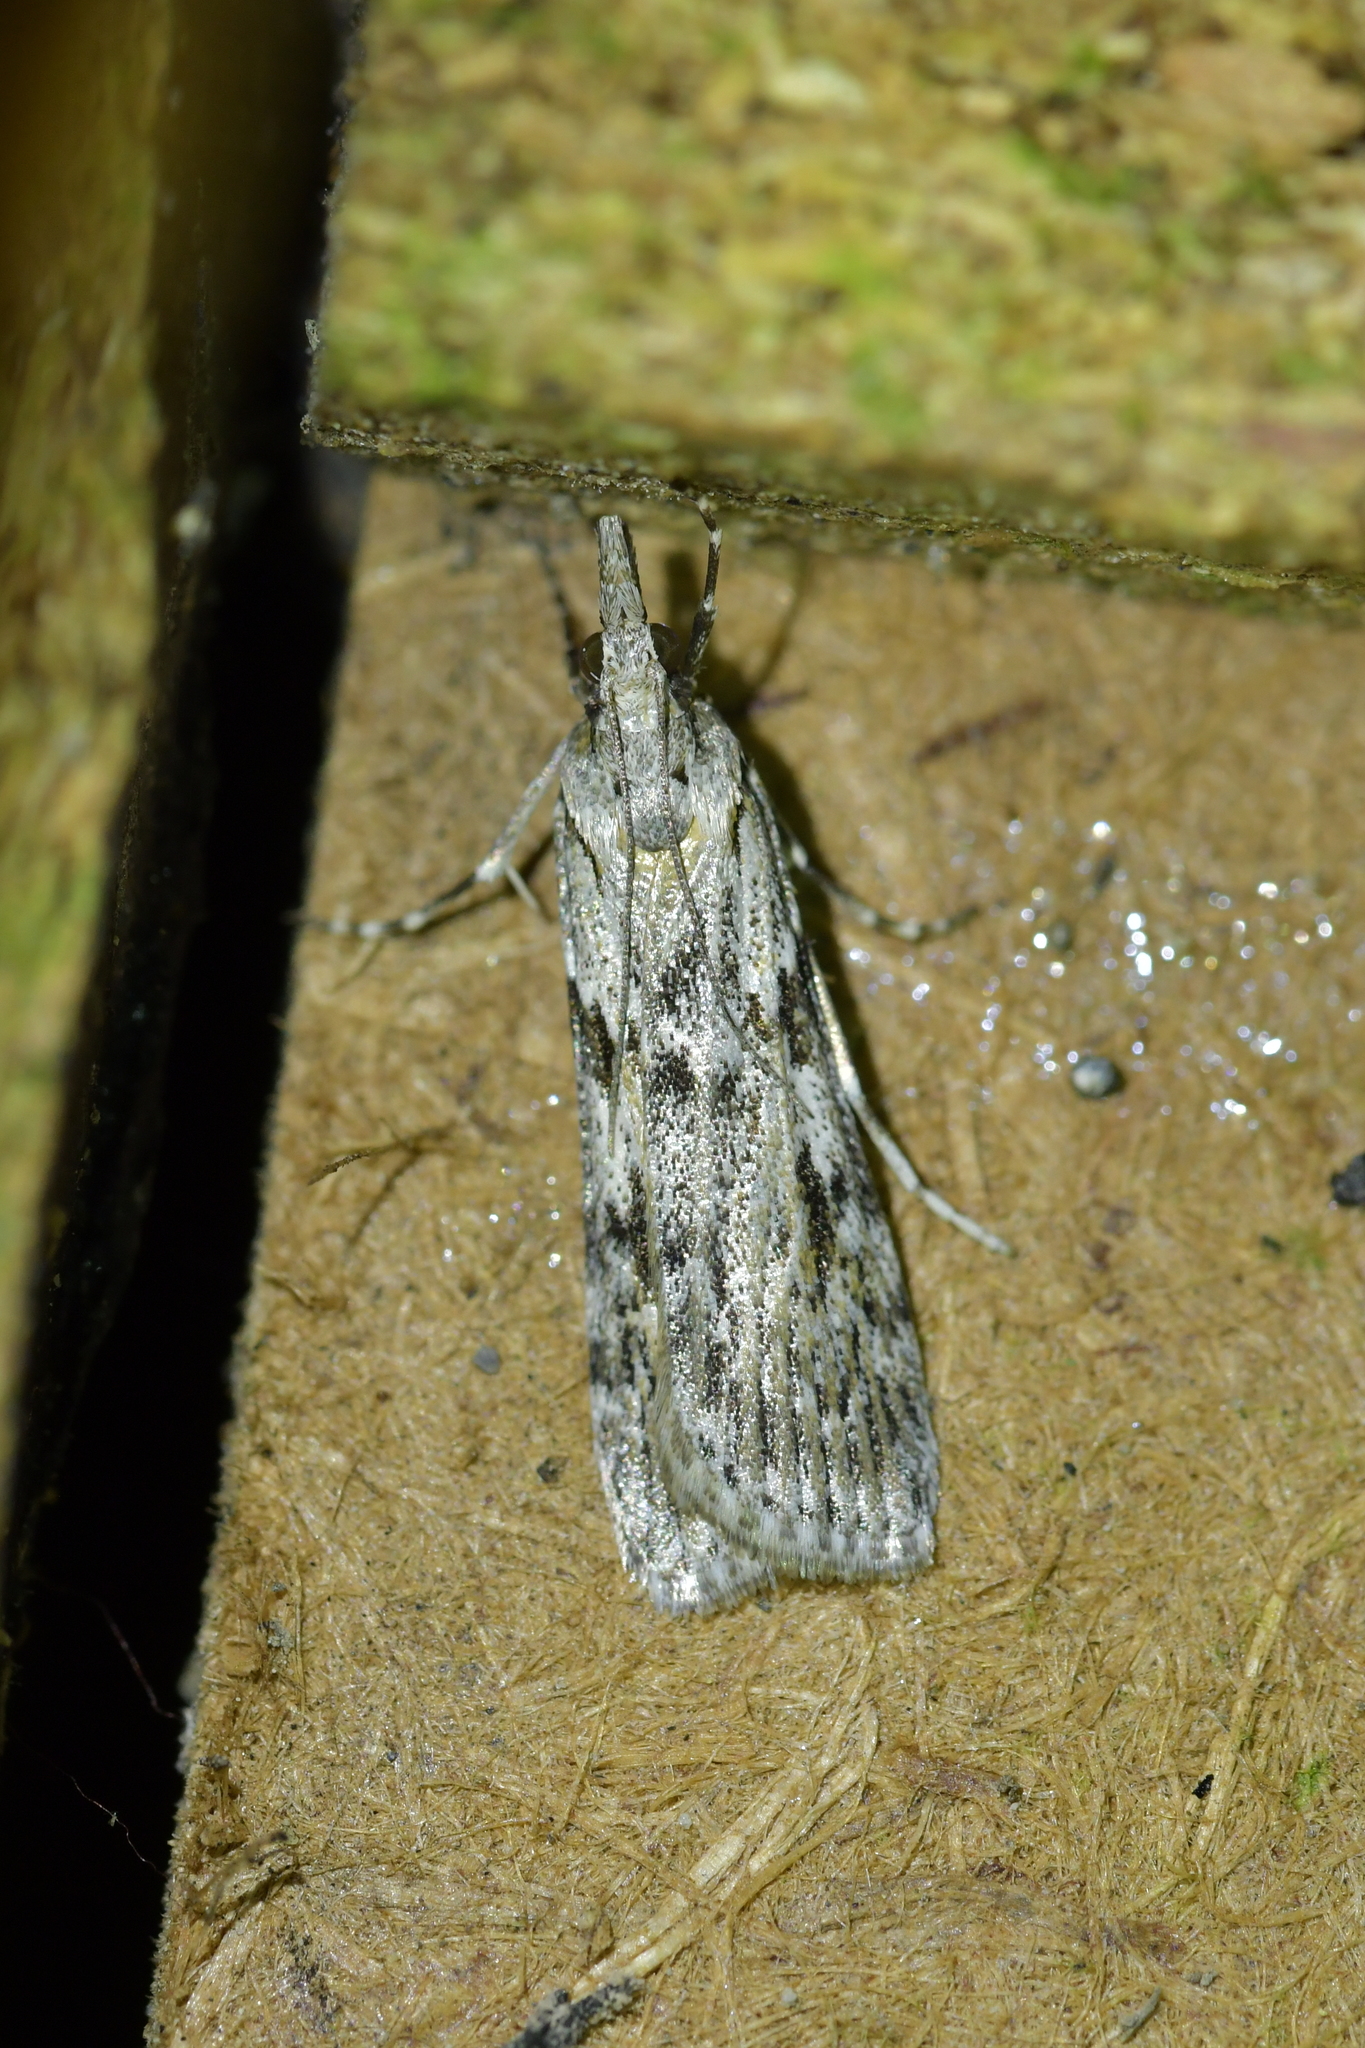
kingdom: Animalia
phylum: Arthropoda
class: Insecta
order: Lepidoptera
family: Crambidae
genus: Scoparia
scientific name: Scoparia halopis
